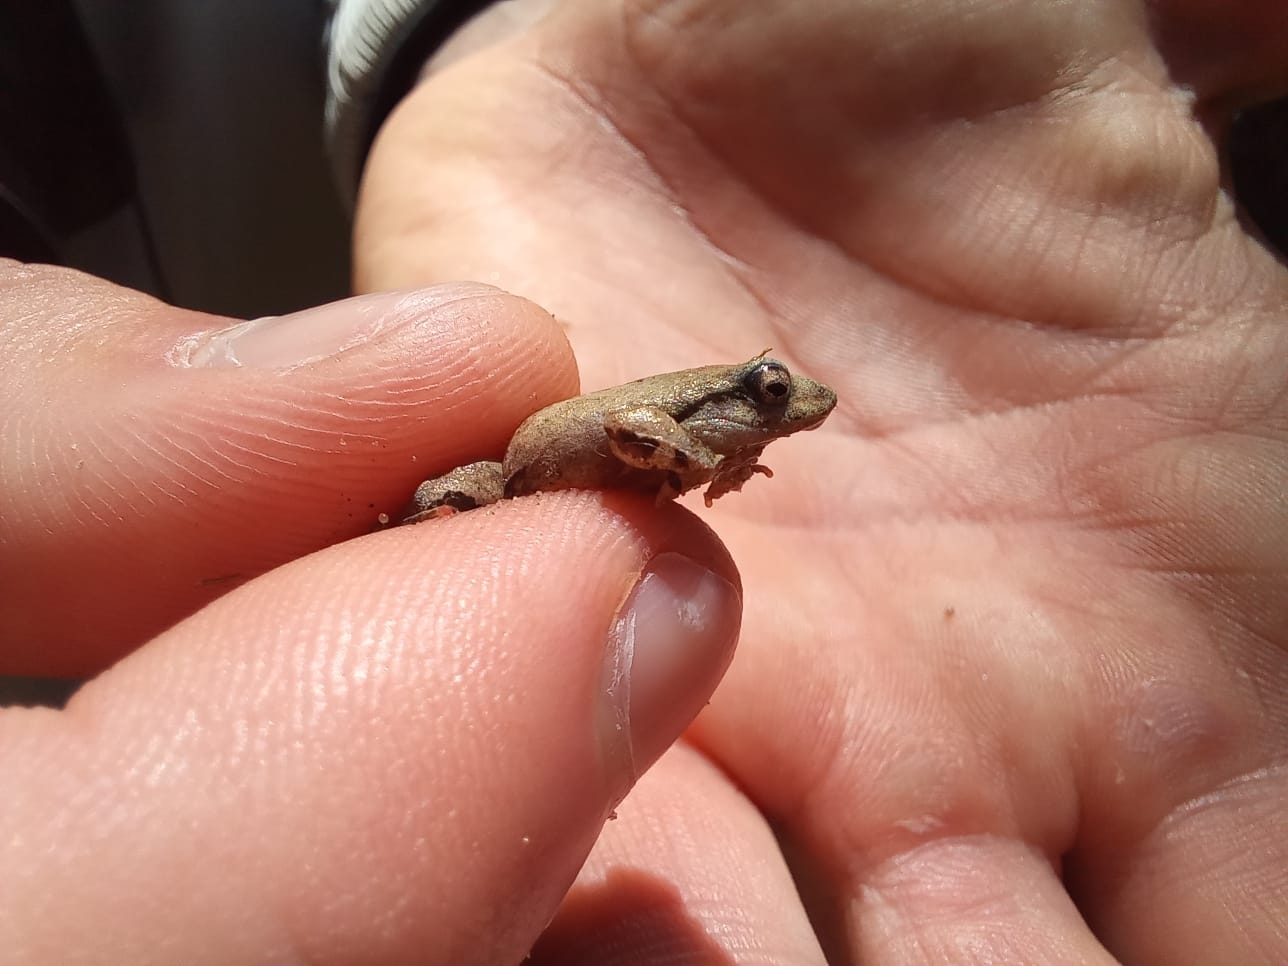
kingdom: Animalia
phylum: Chordata
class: Amphibia
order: Anura
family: Leptodactylidae
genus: Physalaemus
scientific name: Physalaemus nanus
